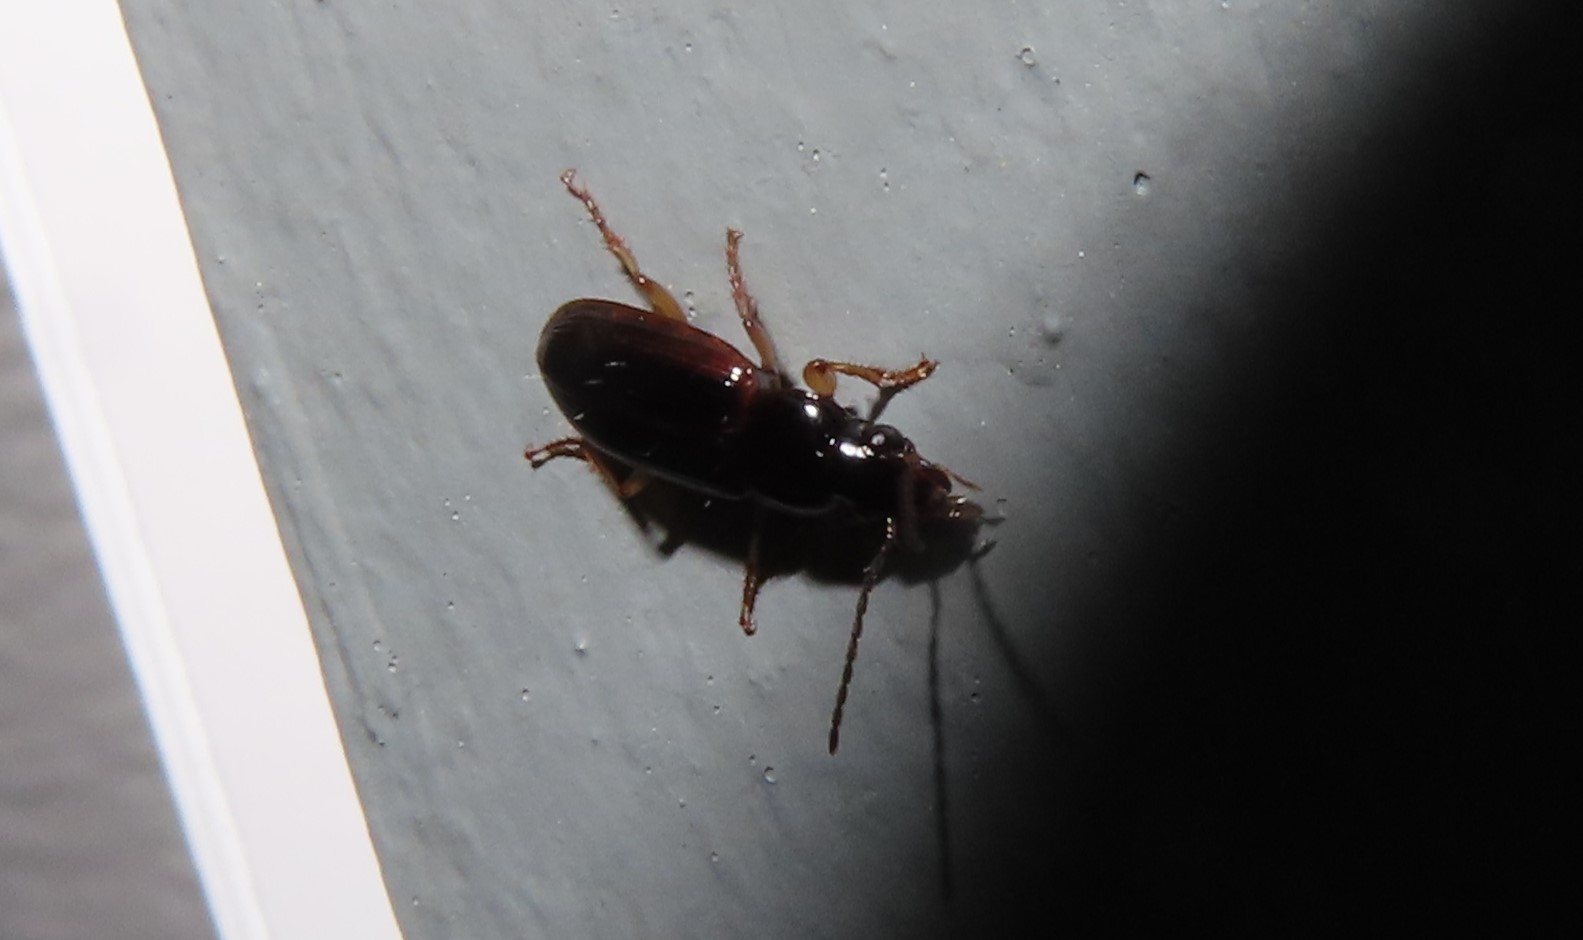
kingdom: Animalia
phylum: Arthropoda
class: Insecta
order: Coleoptera
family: Carabidae
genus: Stenolophus
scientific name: Stenolophus ochropezus
